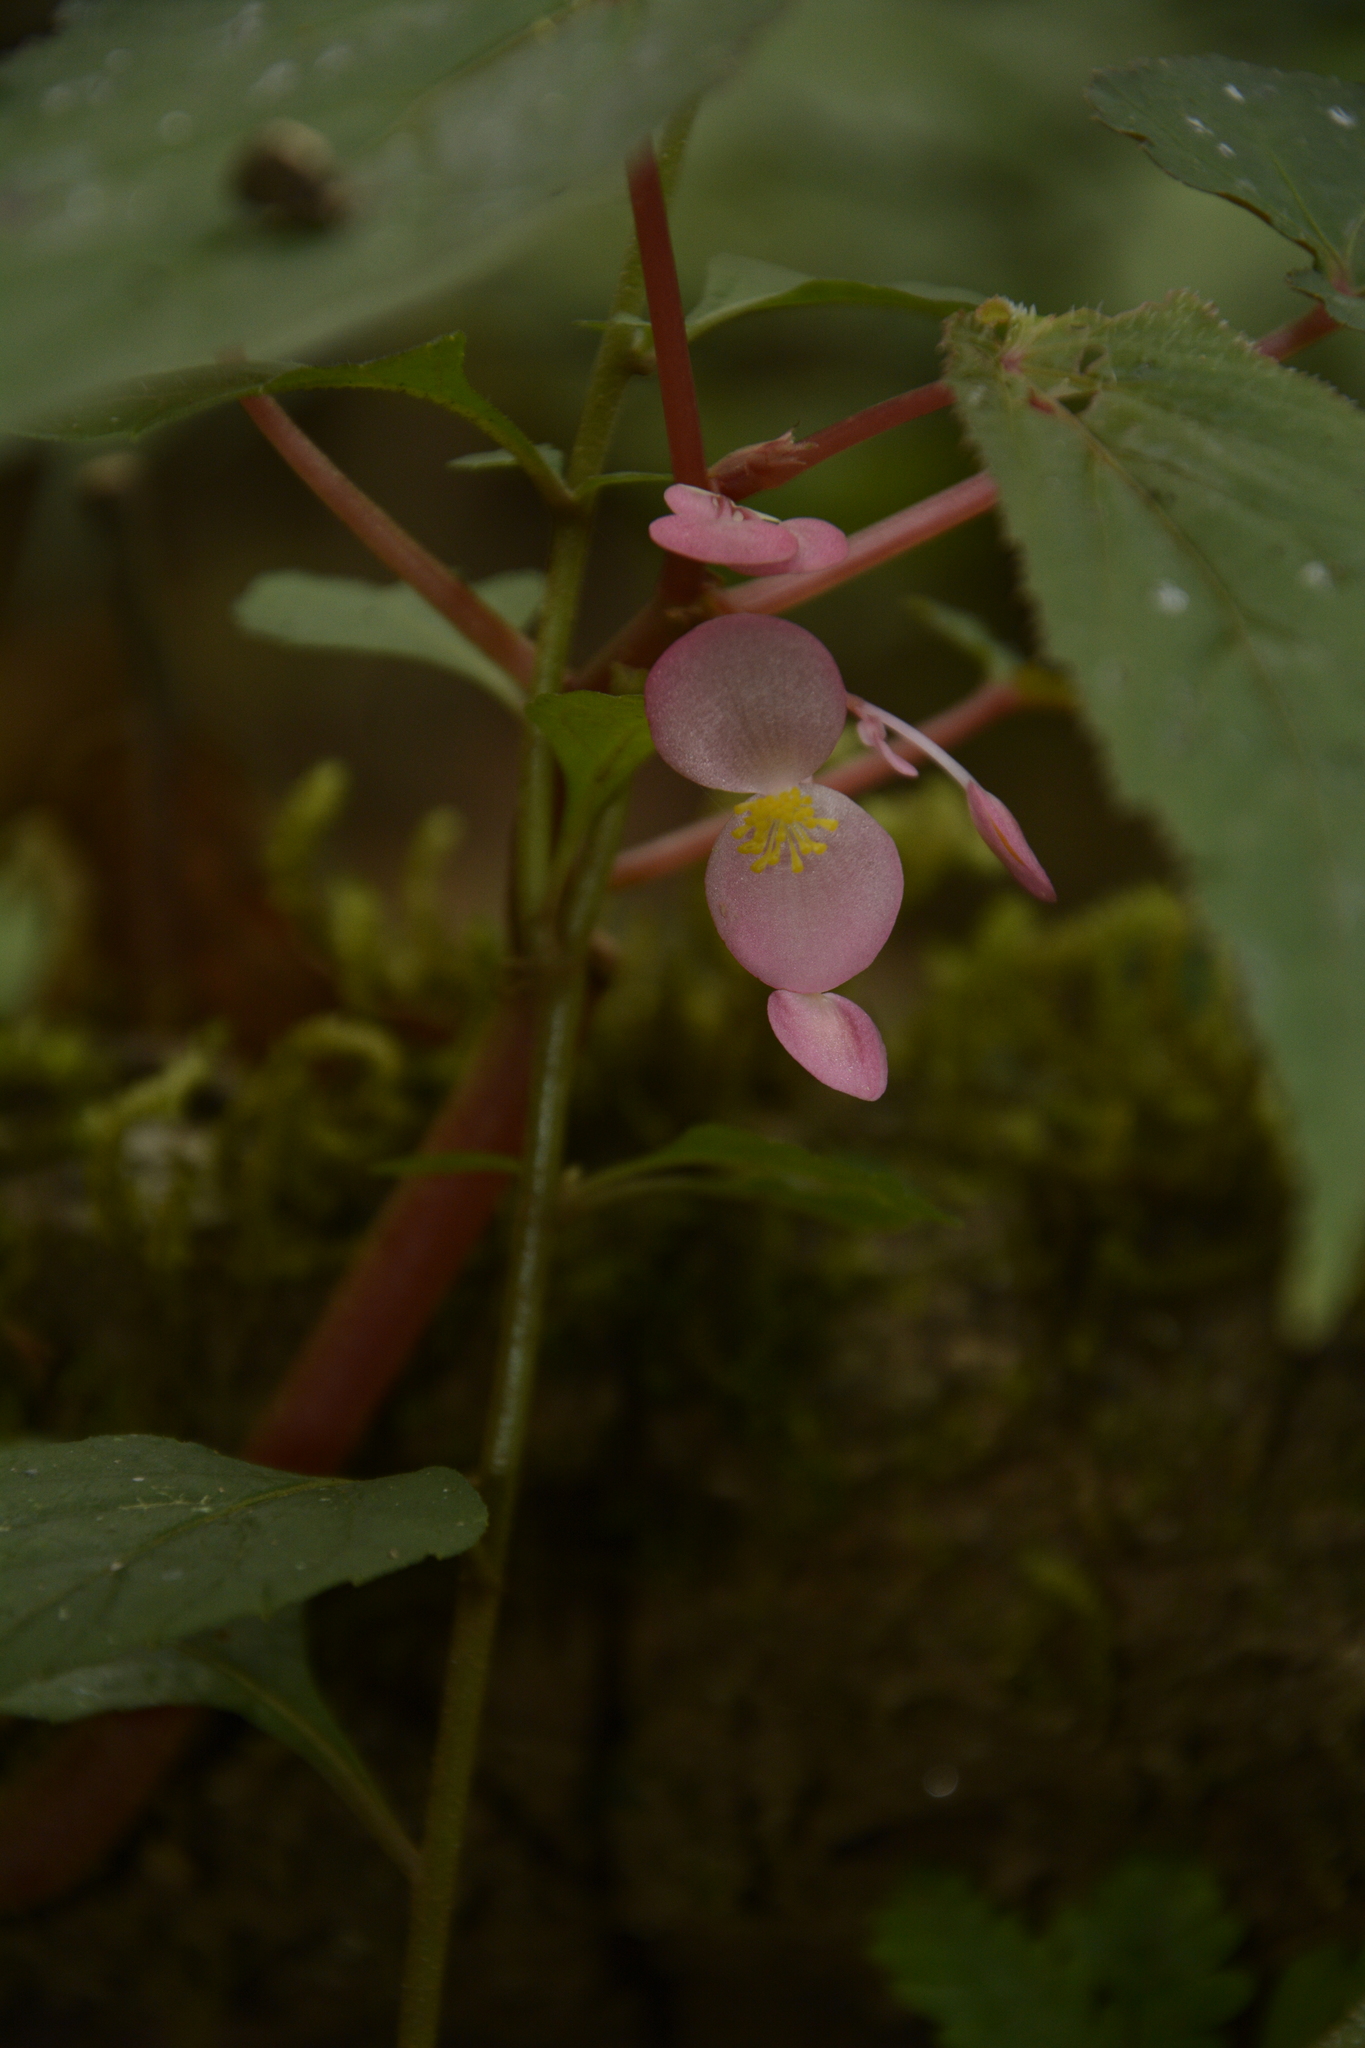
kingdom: Plantae
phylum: Tracheophyta
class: Magnoliopsida
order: Cucurbitales
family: Begoniaceae
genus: Begonia
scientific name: Begonia dipetala
